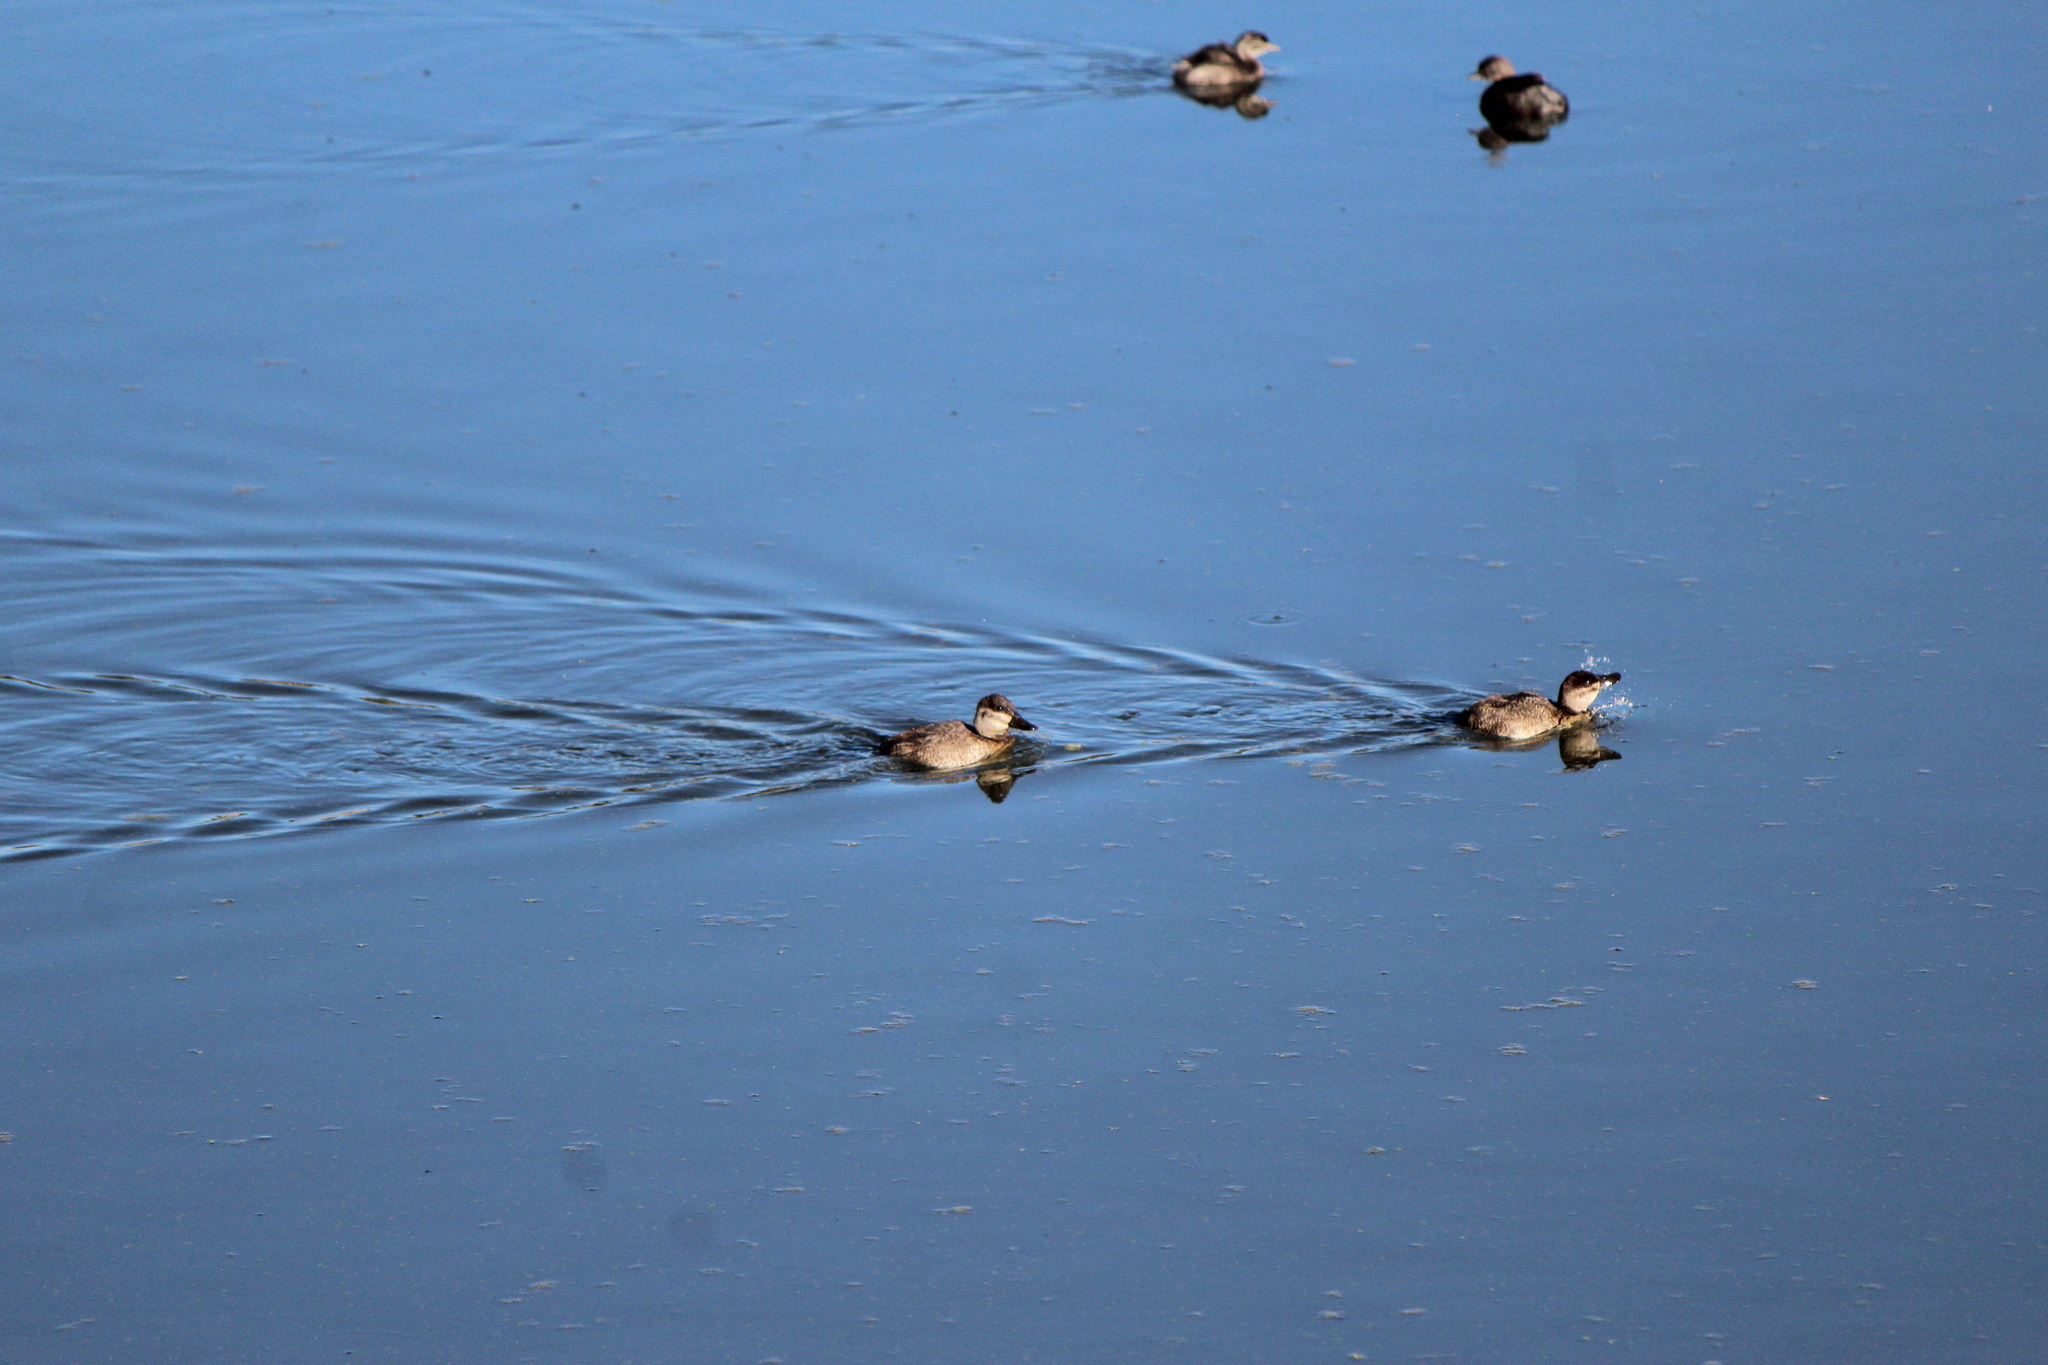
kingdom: Animalia
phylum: Chordata
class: Aves
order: Anseriformes
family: Anatidae
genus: Oxyura
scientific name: Oxyura jamaicensis
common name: Ruddy duck
